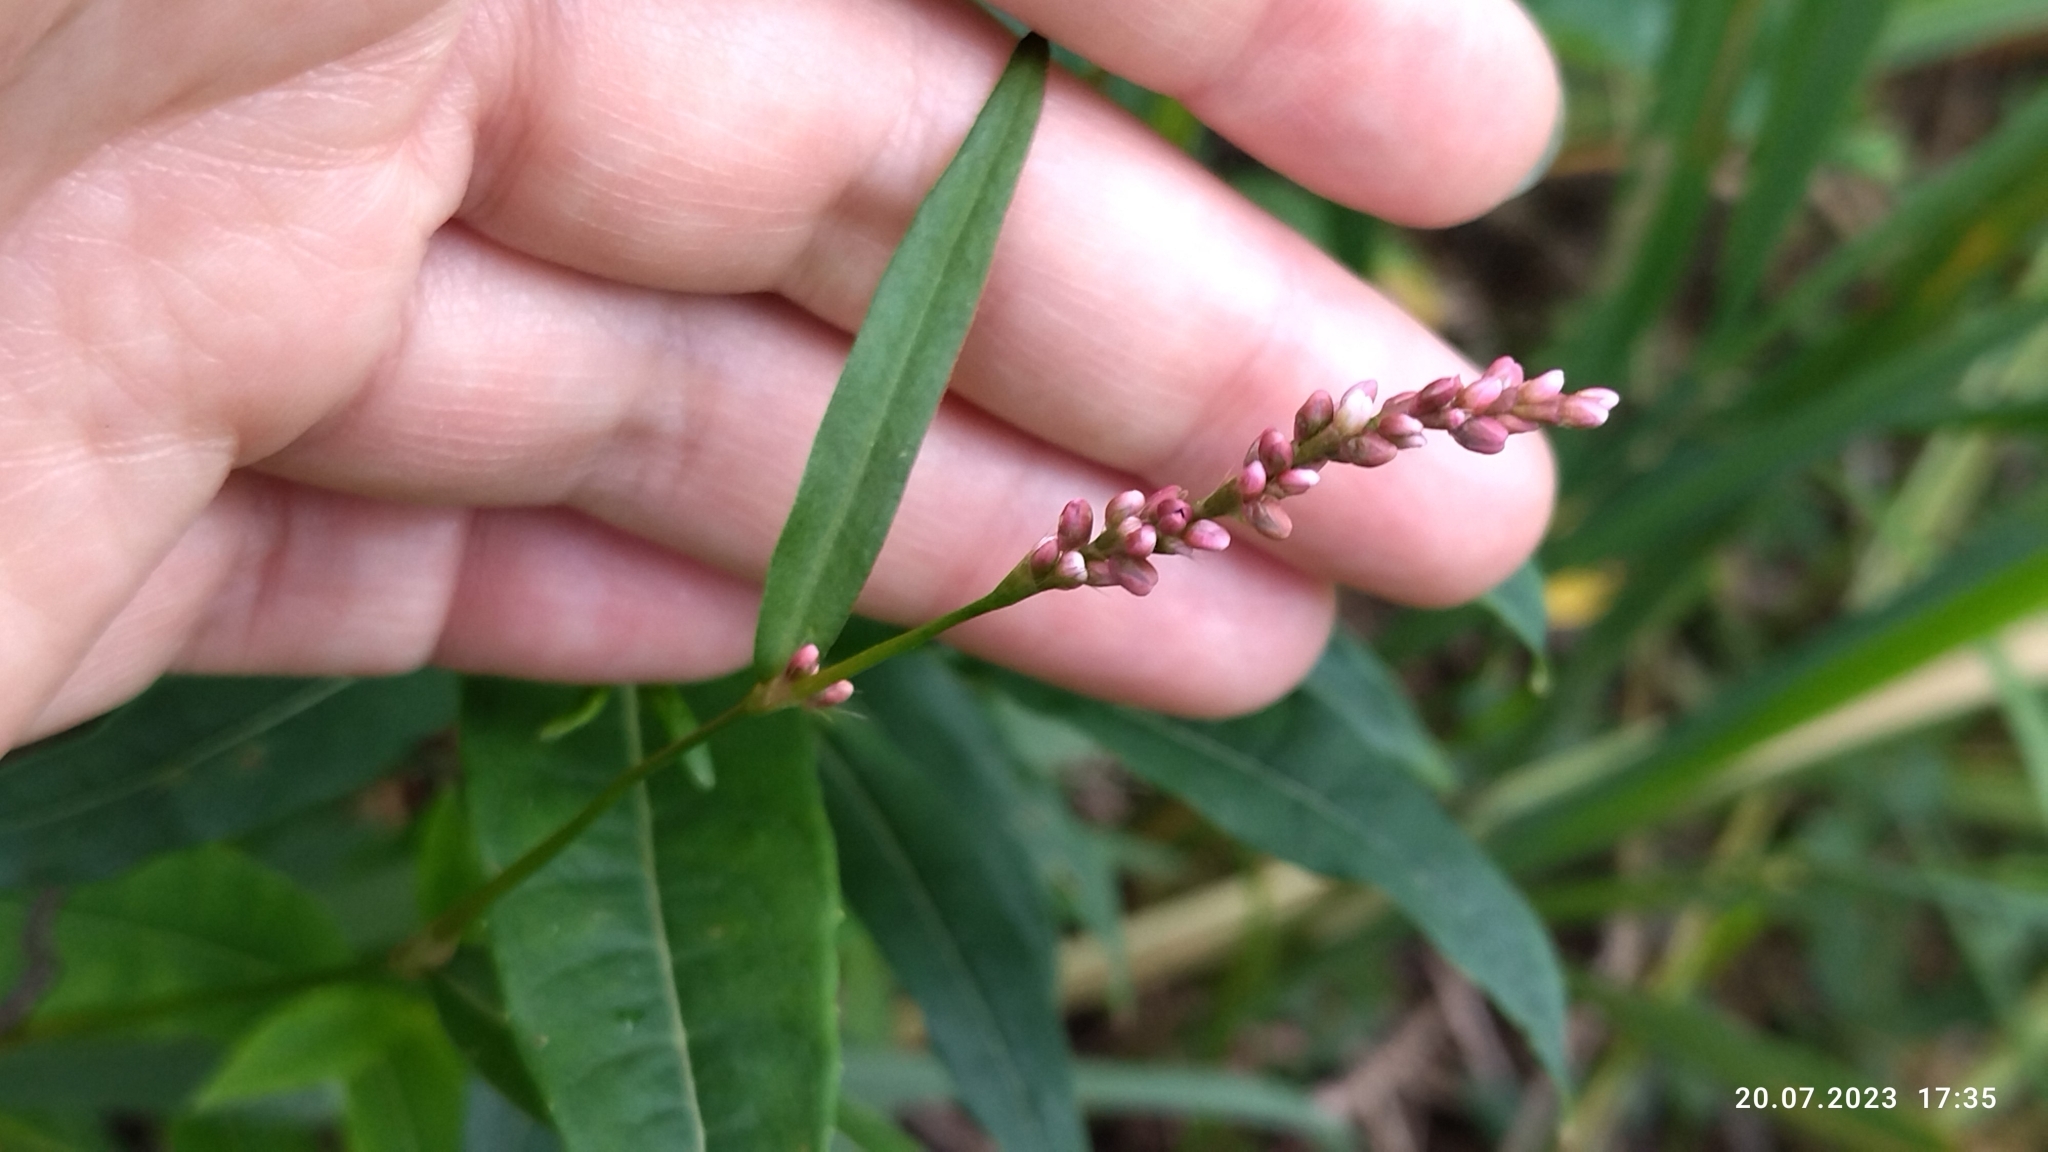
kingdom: Plantae
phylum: Tracheophyta
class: Magnoliopsida
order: Caryophyllales
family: Polygonaceae
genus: Persicaria
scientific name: Persicaria minor
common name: Small water-pepper
